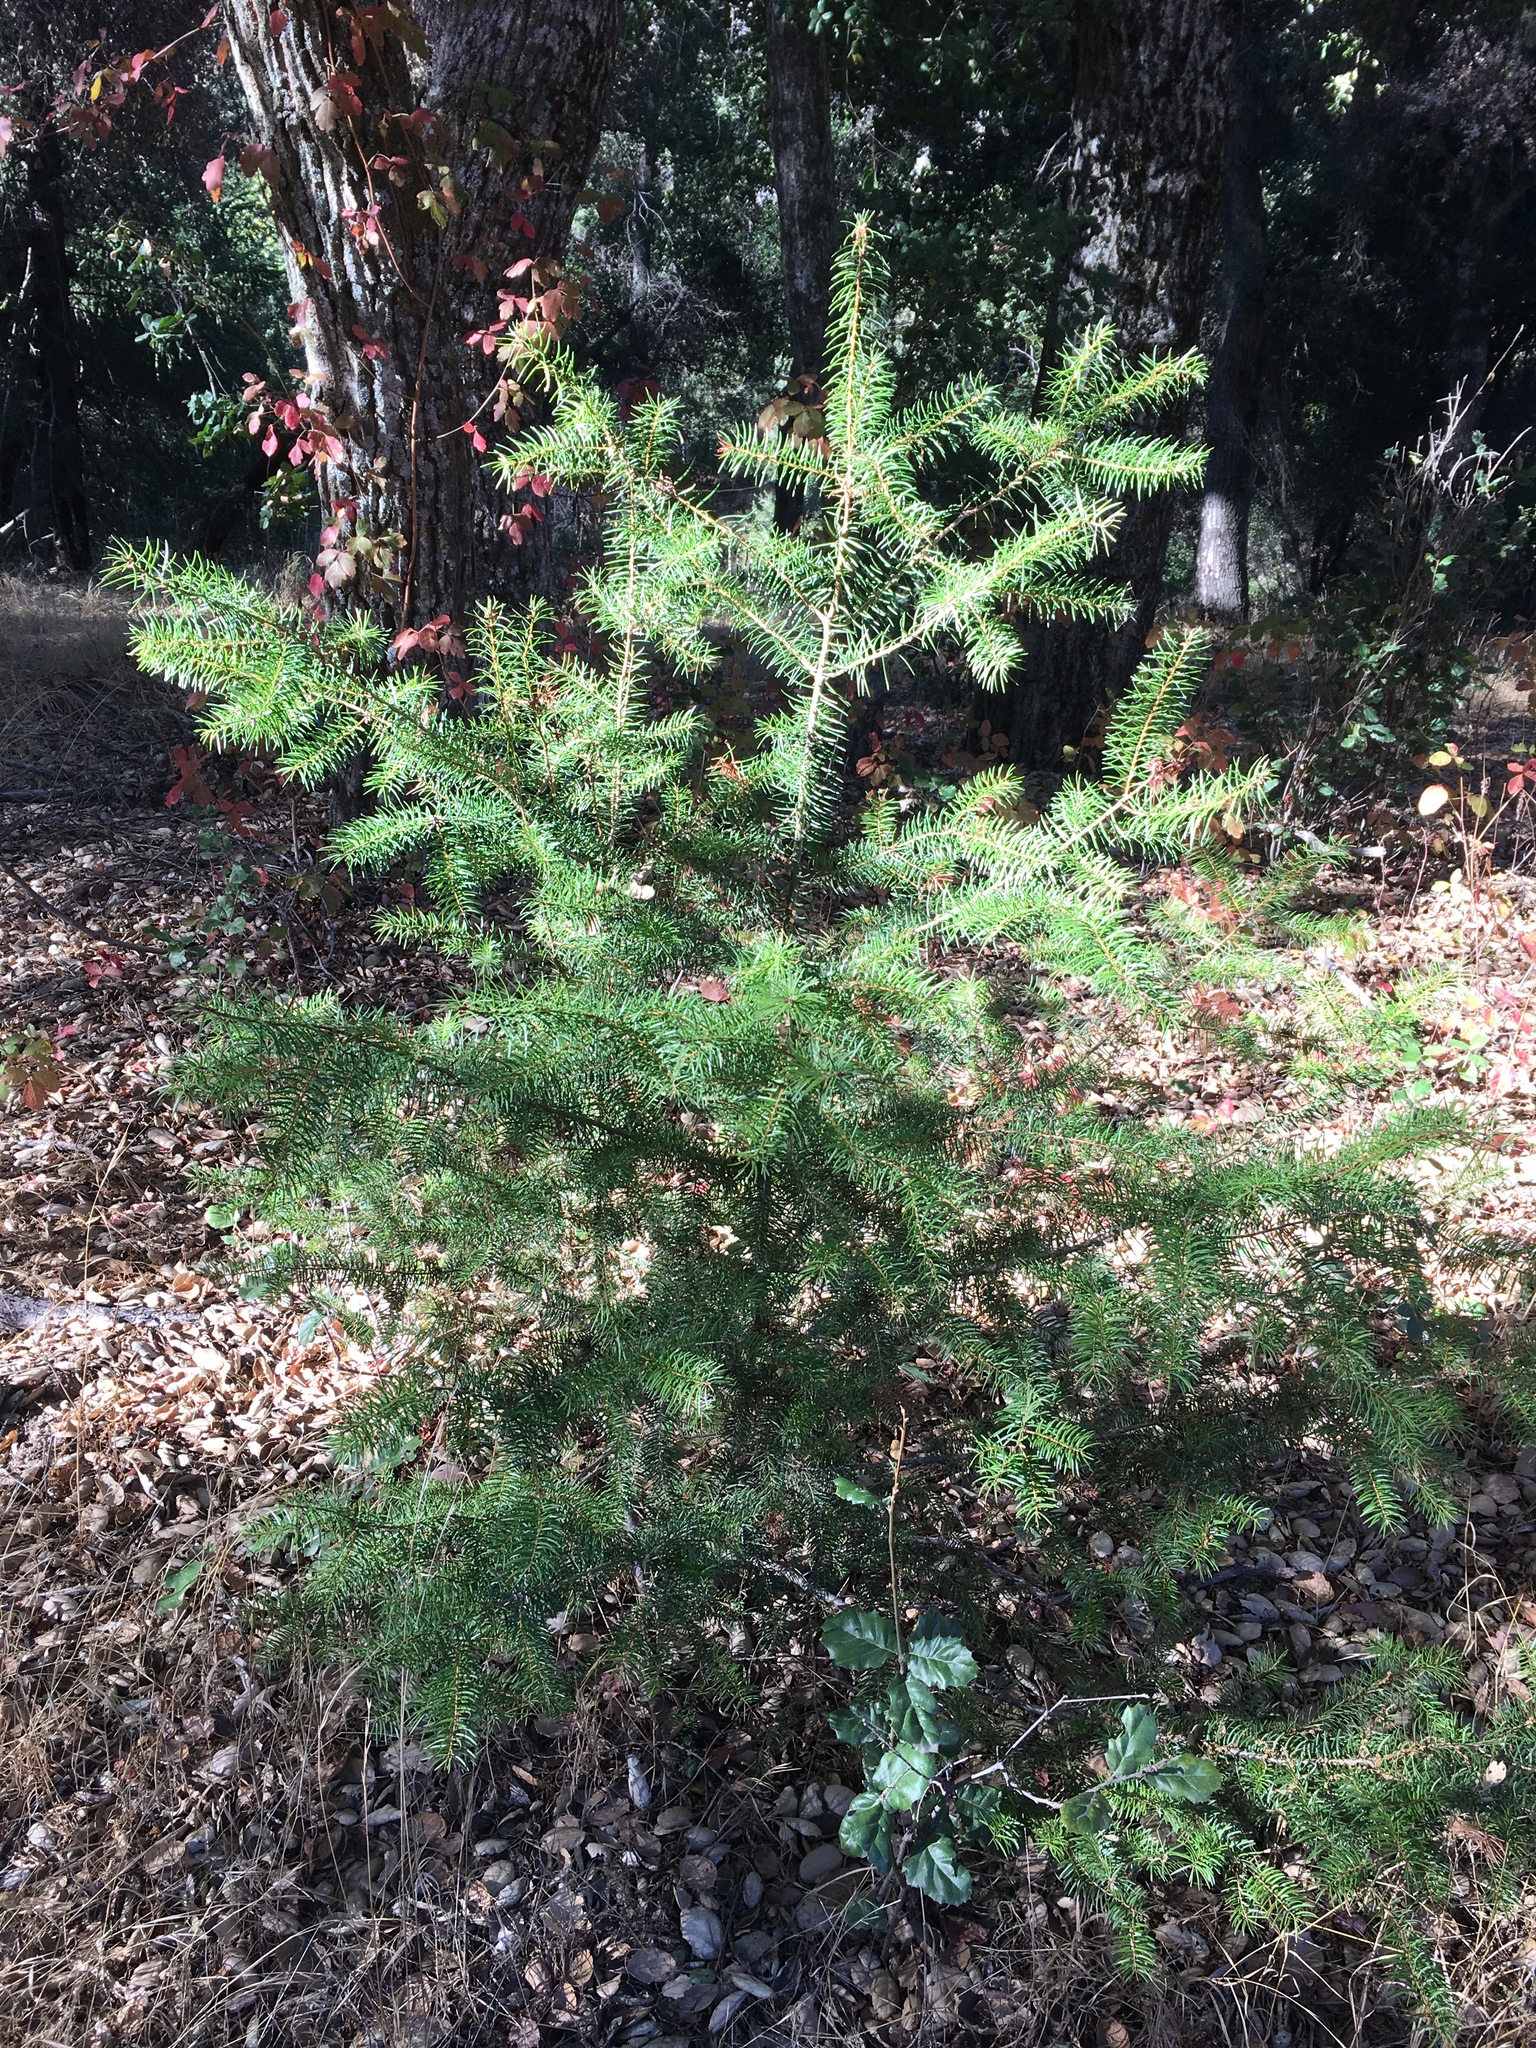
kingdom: Plantae
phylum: Tracheophyta
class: Pinopsida
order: Pinales
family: Pinaceae
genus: Pseudotsuga
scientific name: Pseudotsuga macrocarpa
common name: Big-cone douglas-fir
